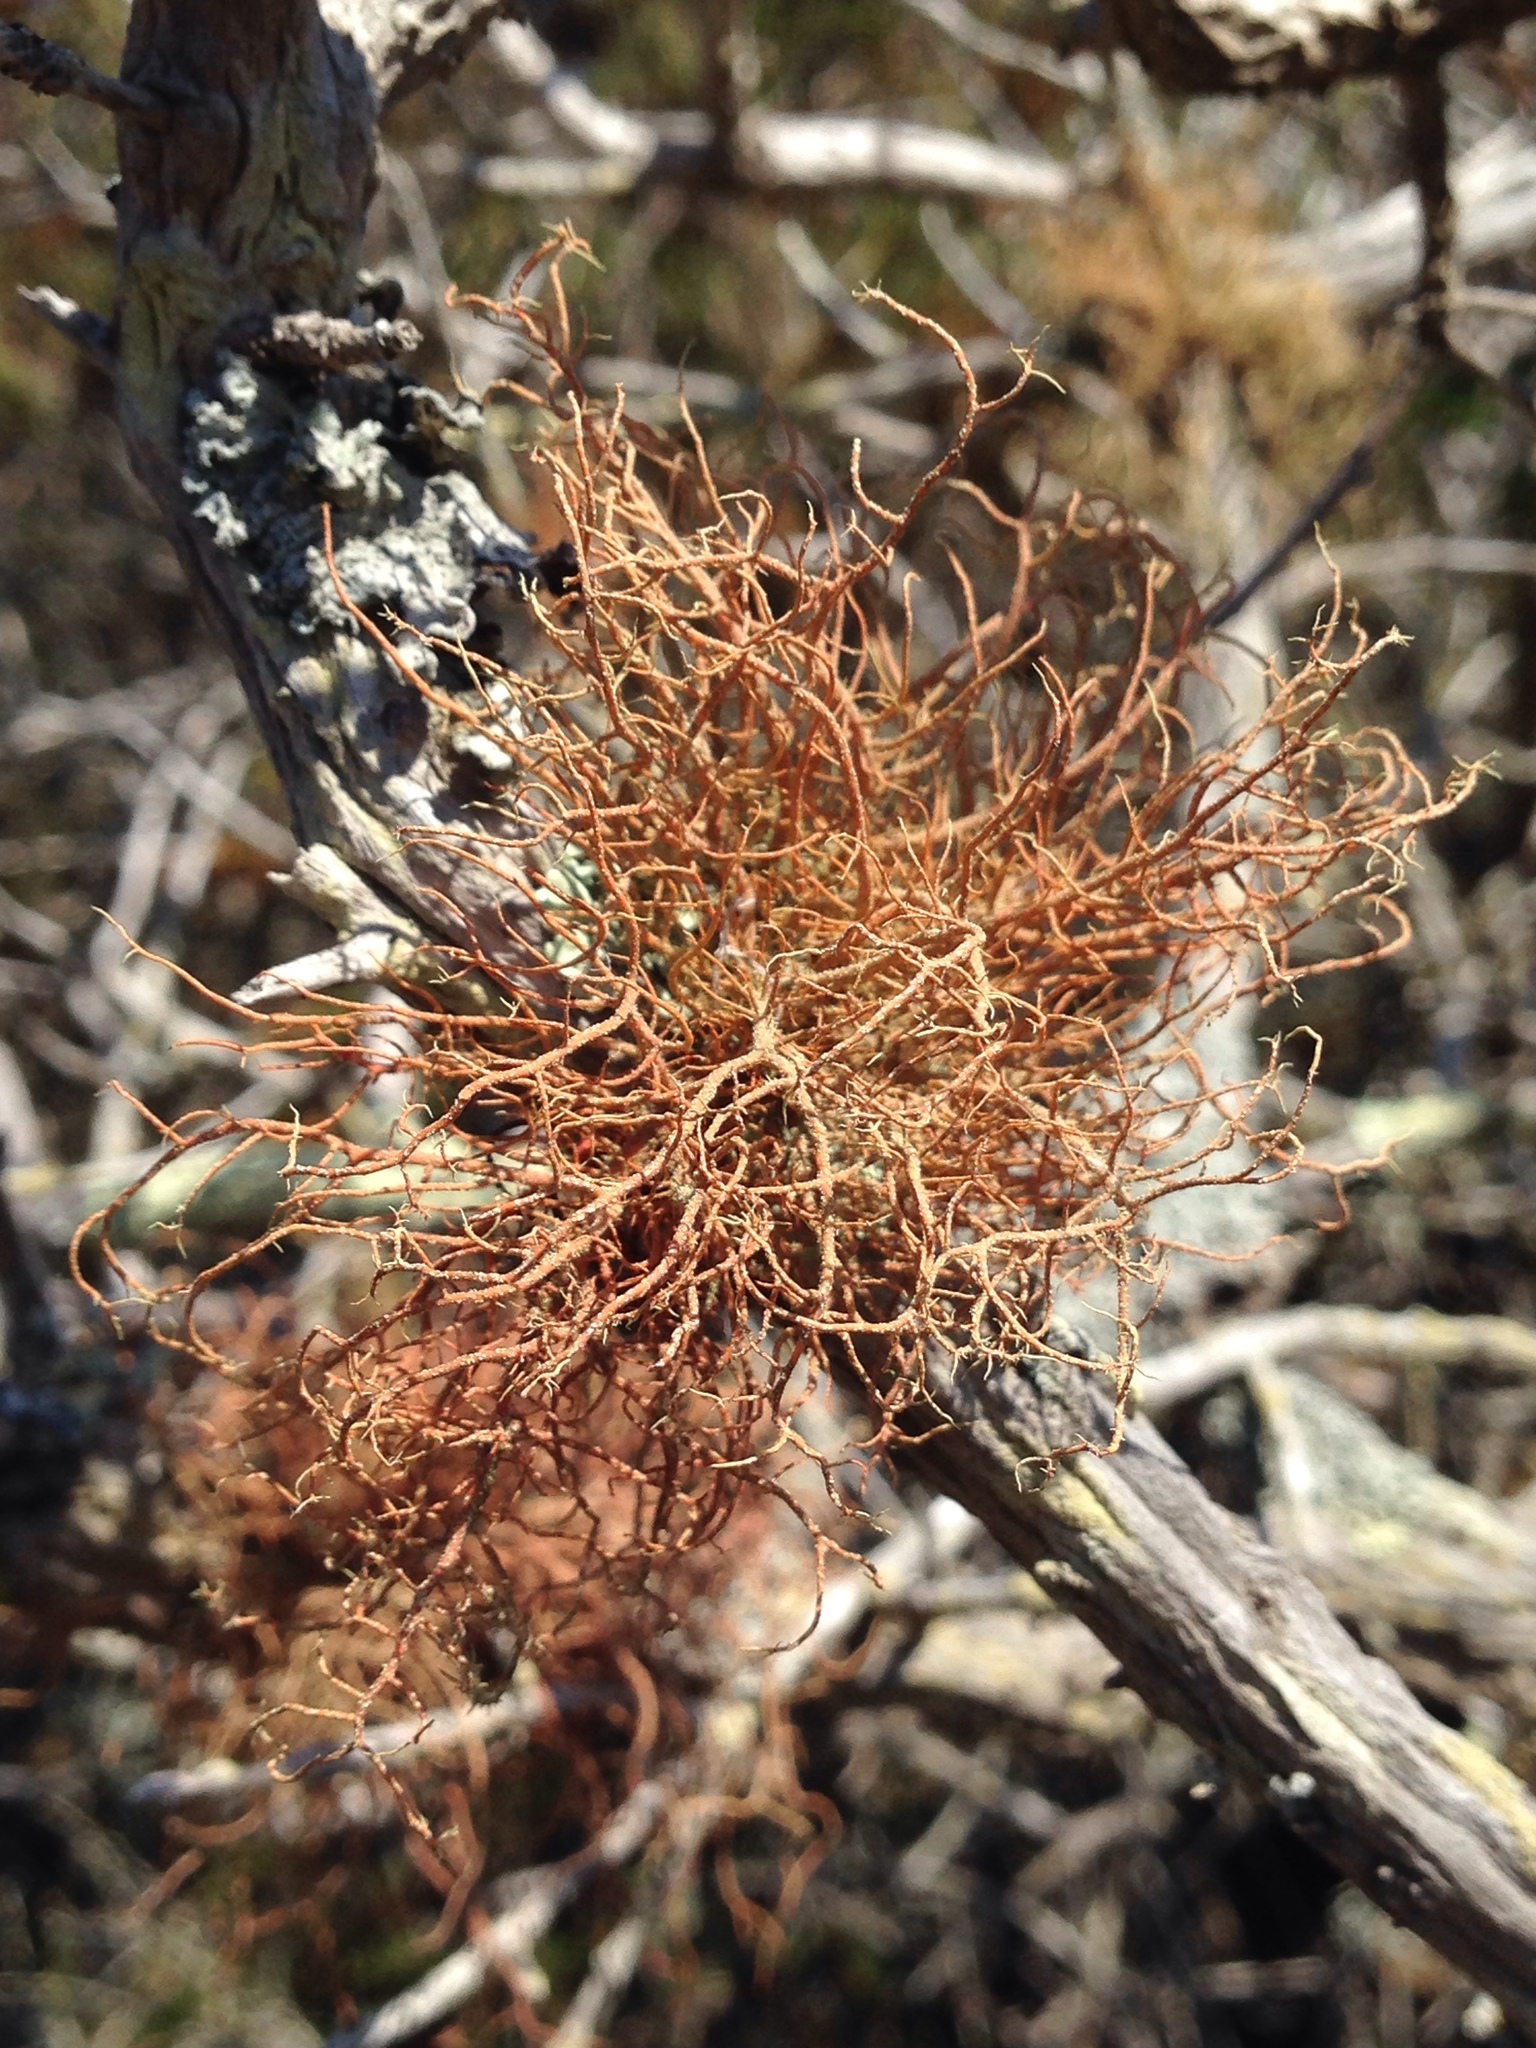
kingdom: Fungi
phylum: Ascomycota
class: Lecanoromycetes
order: Lecanorales
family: Parmeliaceae
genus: Usnea
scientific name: Usnea rubicunda
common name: Red beard lichen
